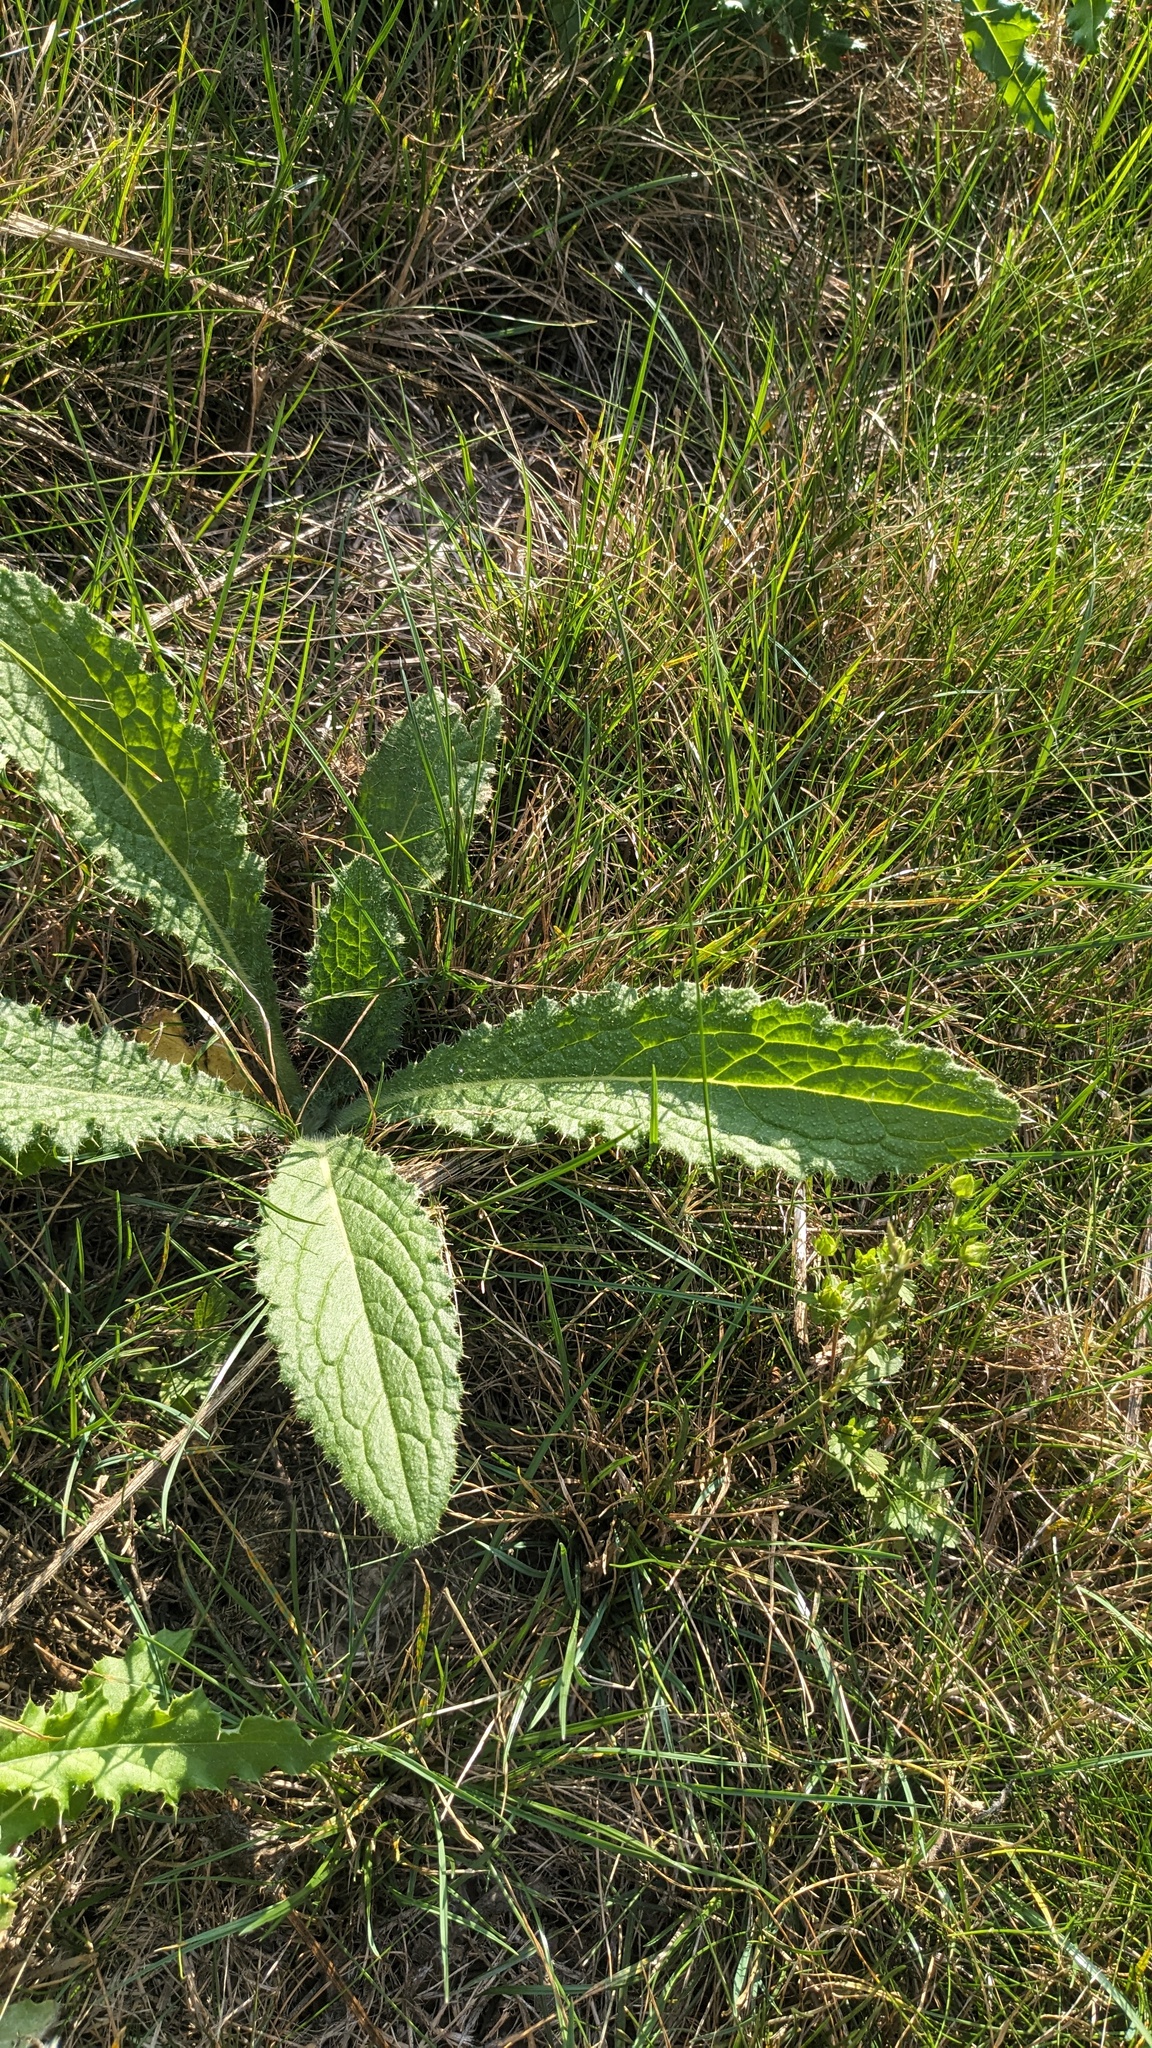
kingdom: Plantae
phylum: Tracheophyta
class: Magnoliopsida
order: Asterales
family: Asteraceae
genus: Cirsium
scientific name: Cirsium vulgare
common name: Bull thistle
